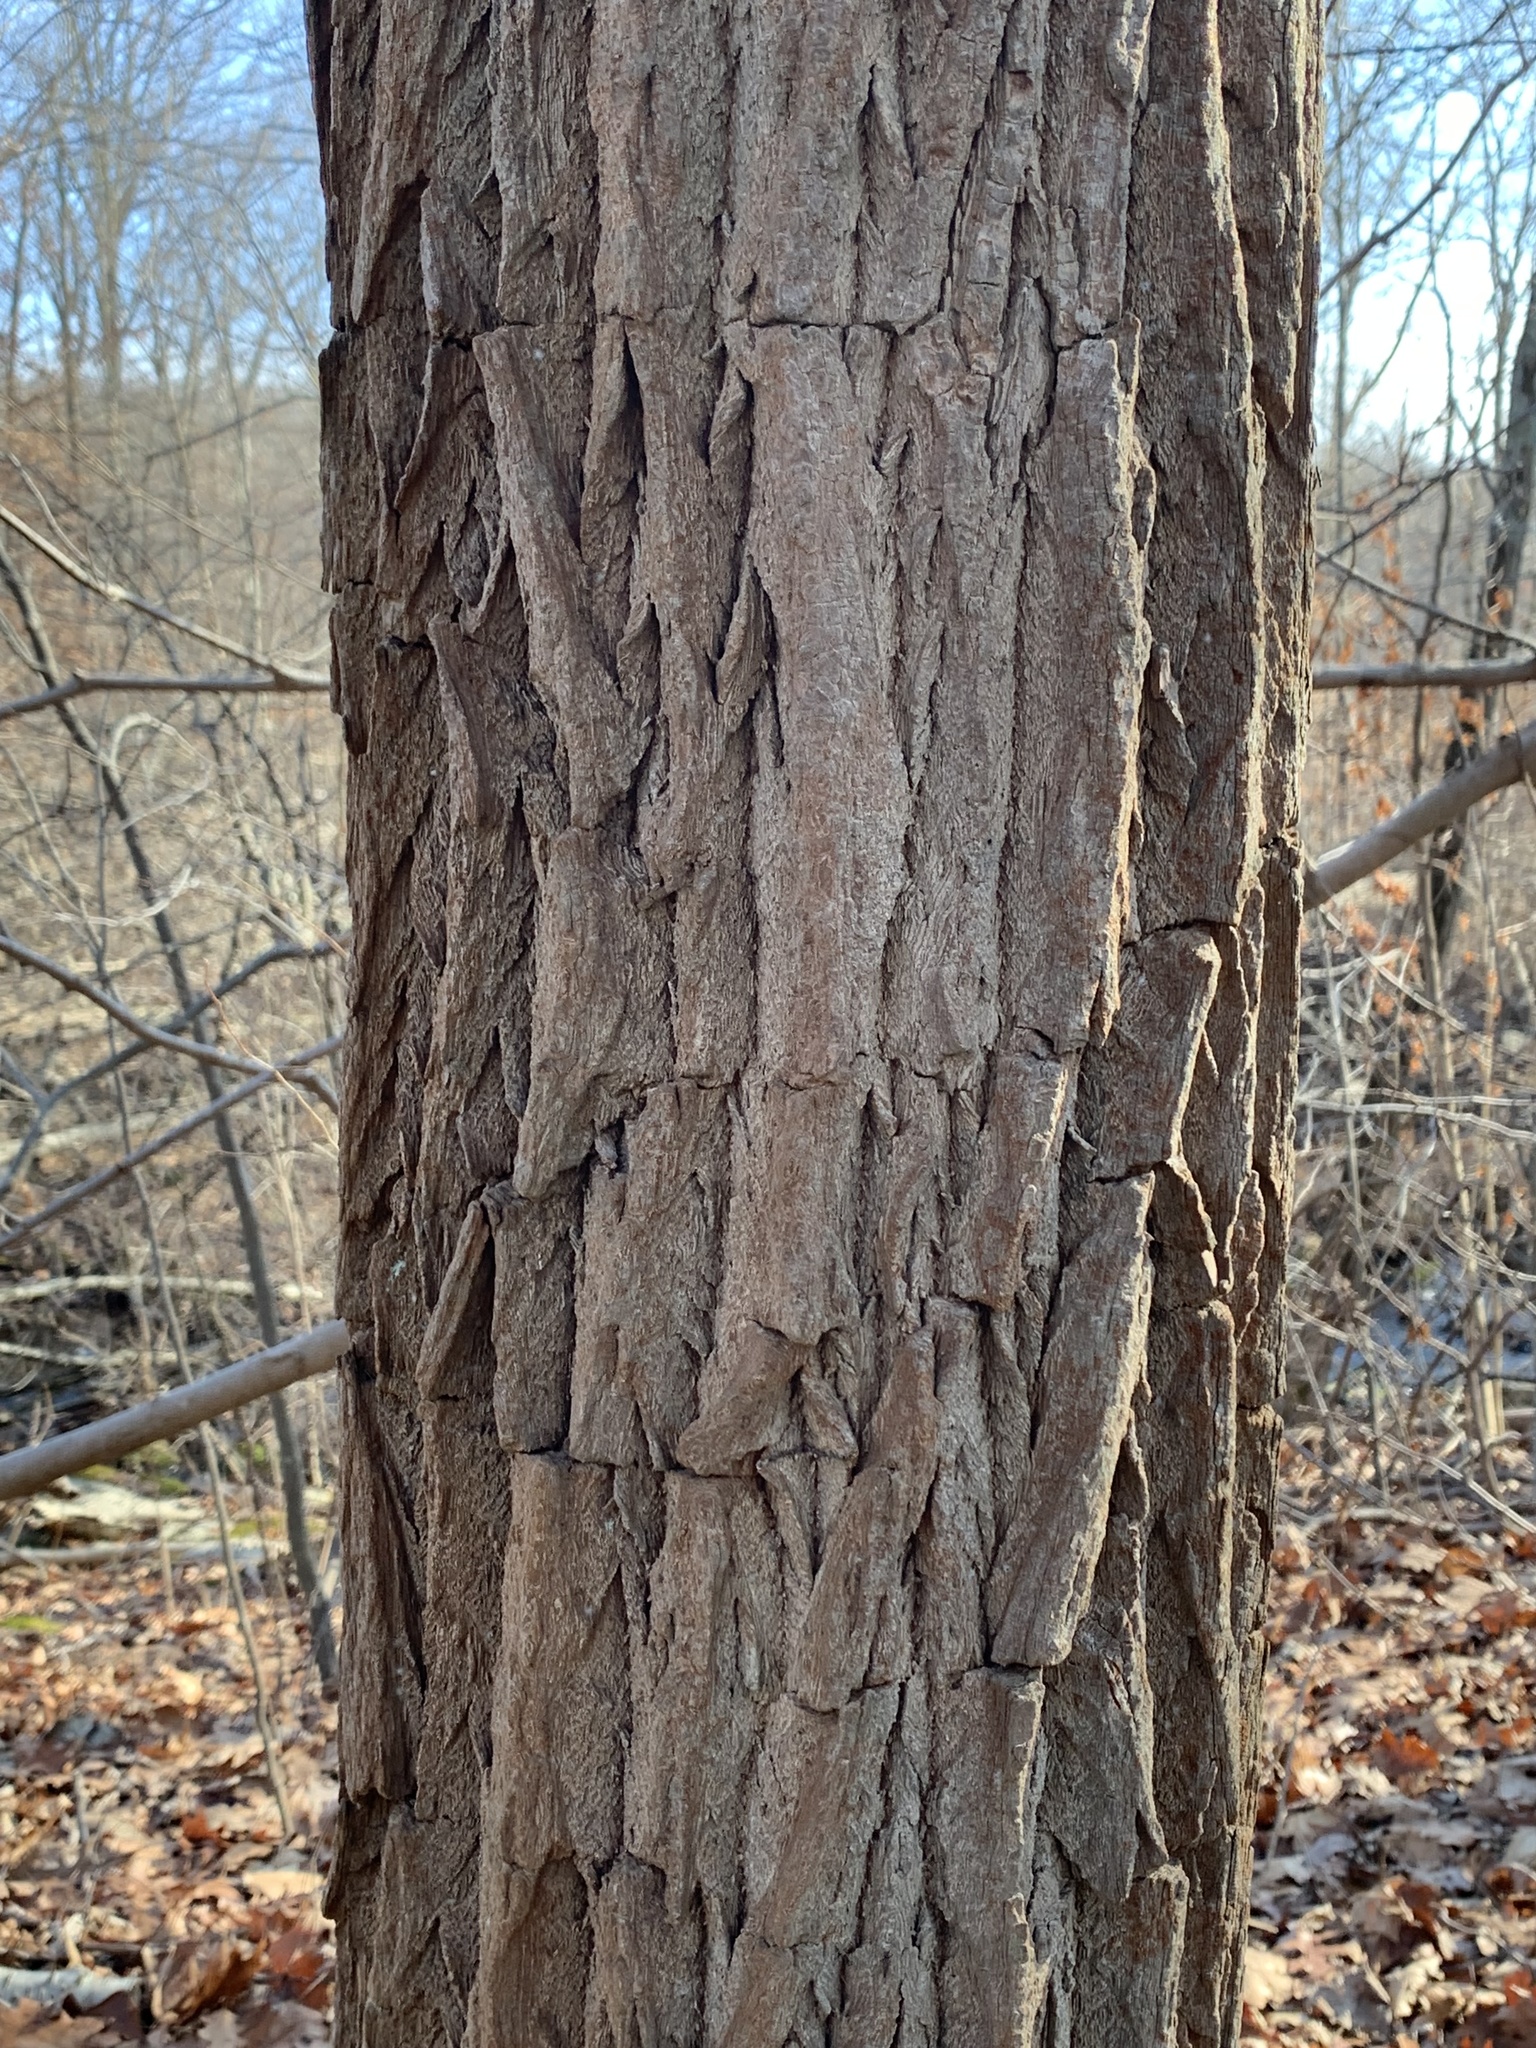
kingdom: Plantae
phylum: Tracheophyta
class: Magnoliopsida
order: Laurales
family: Lauraceae
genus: Sassafras
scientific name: Sassafras albidum
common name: Sassafras
